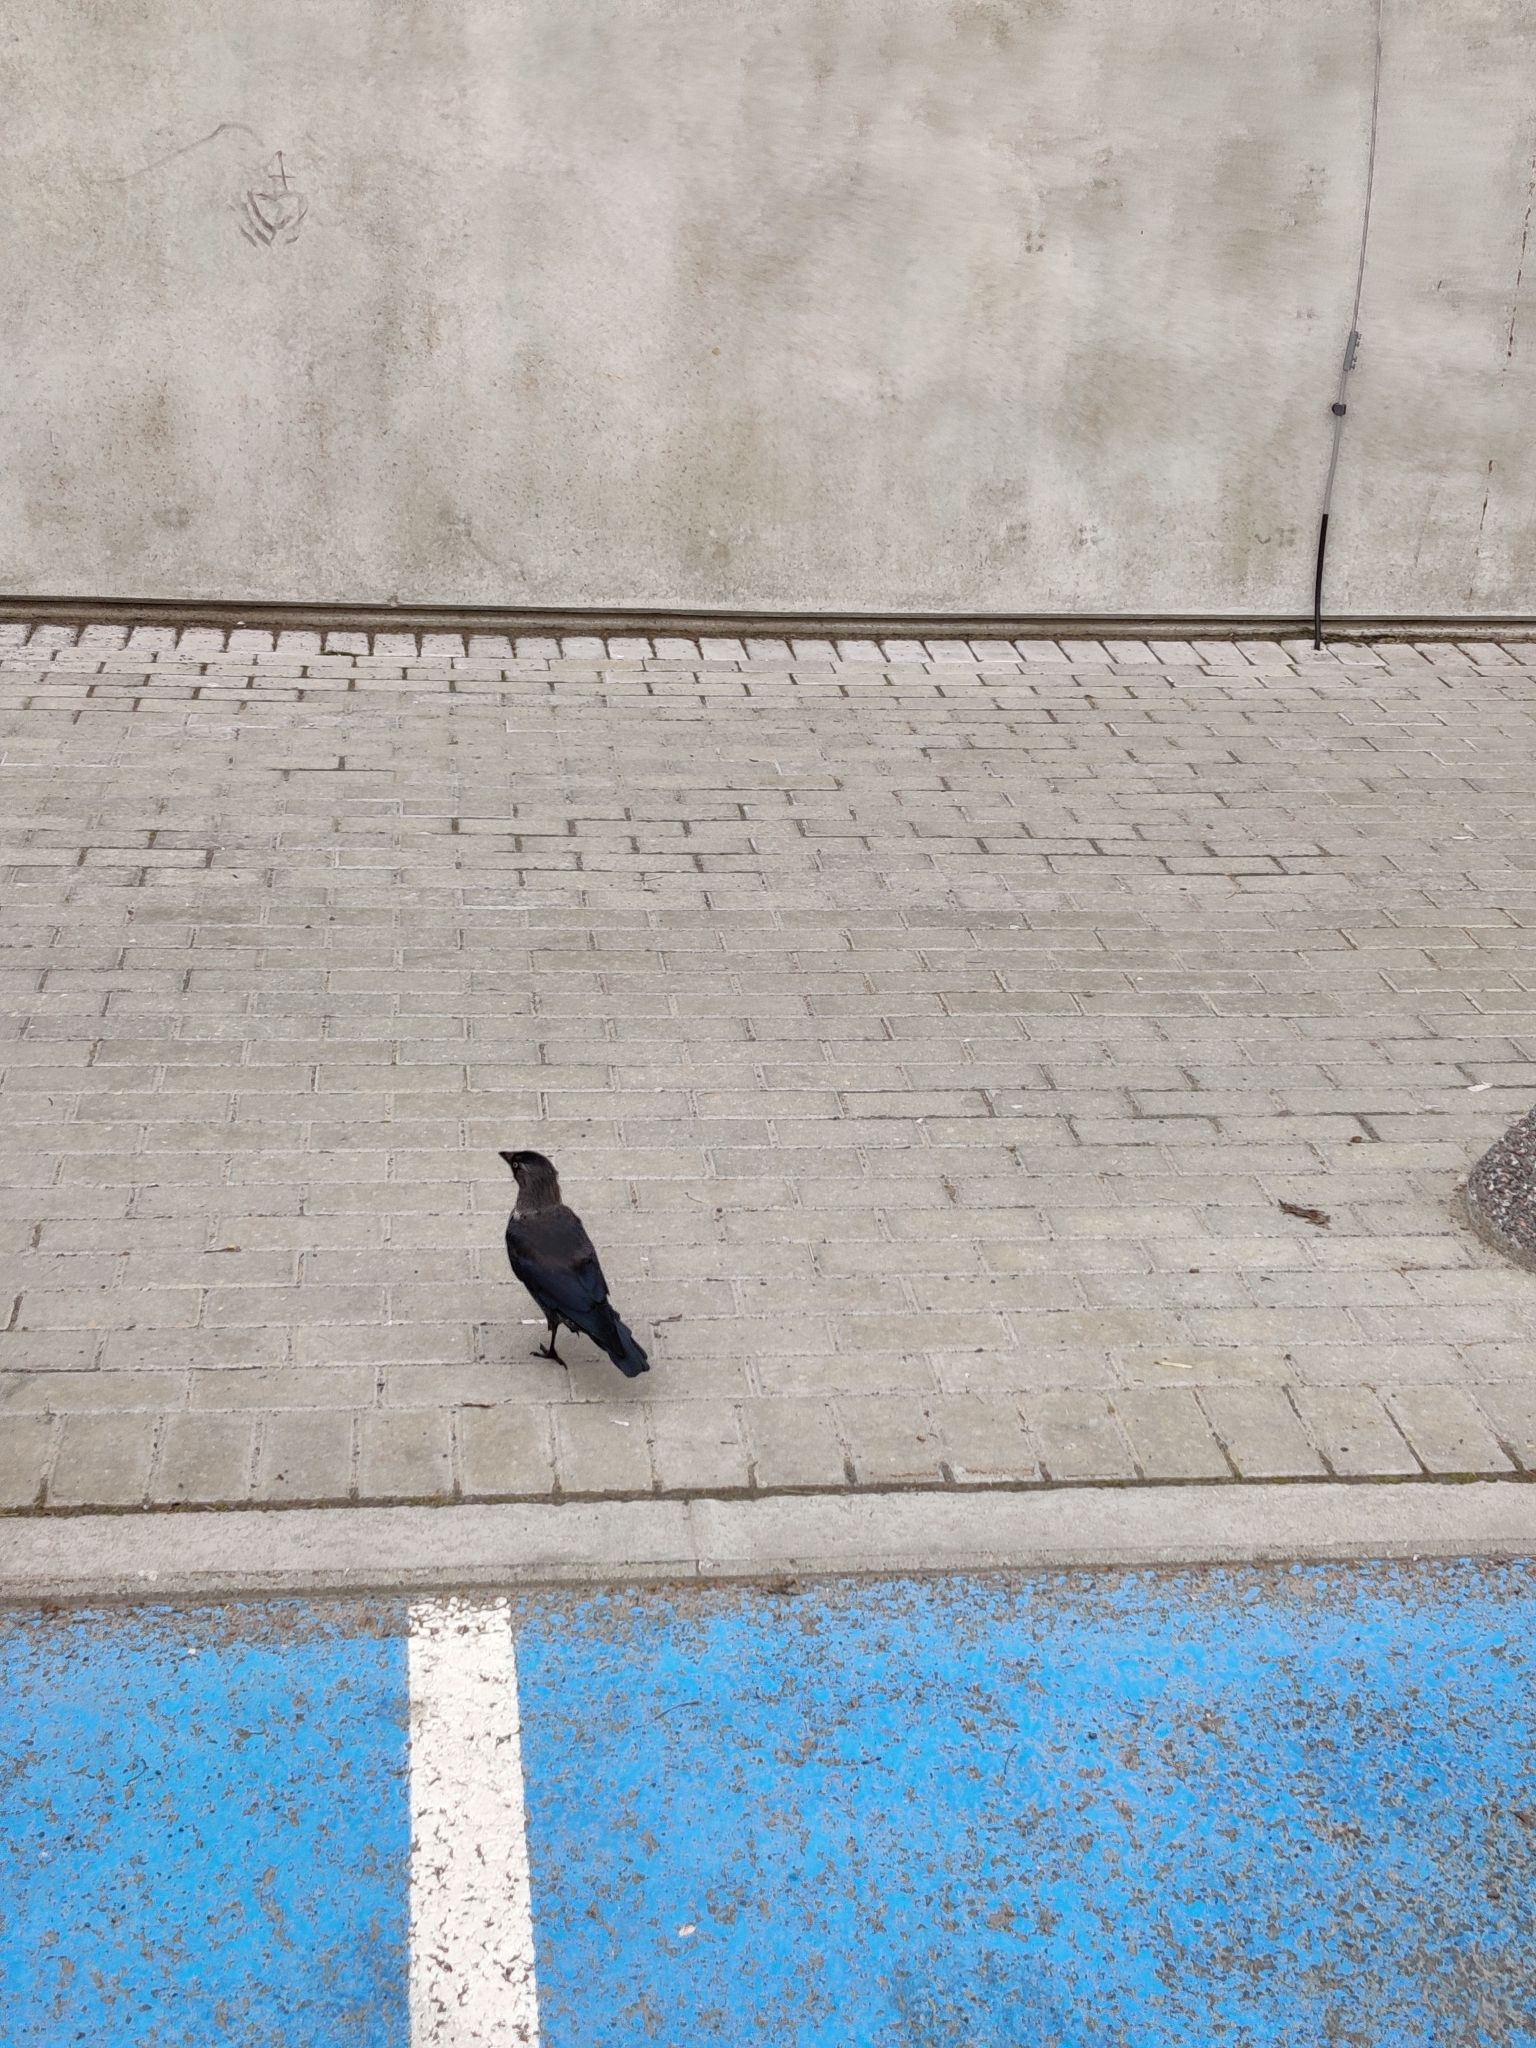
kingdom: Animalia
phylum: Chordata
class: Aves
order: Passeriformes
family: Corvidae
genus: Coloeus
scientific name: Coloeus monedula
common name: Western jackdaw
